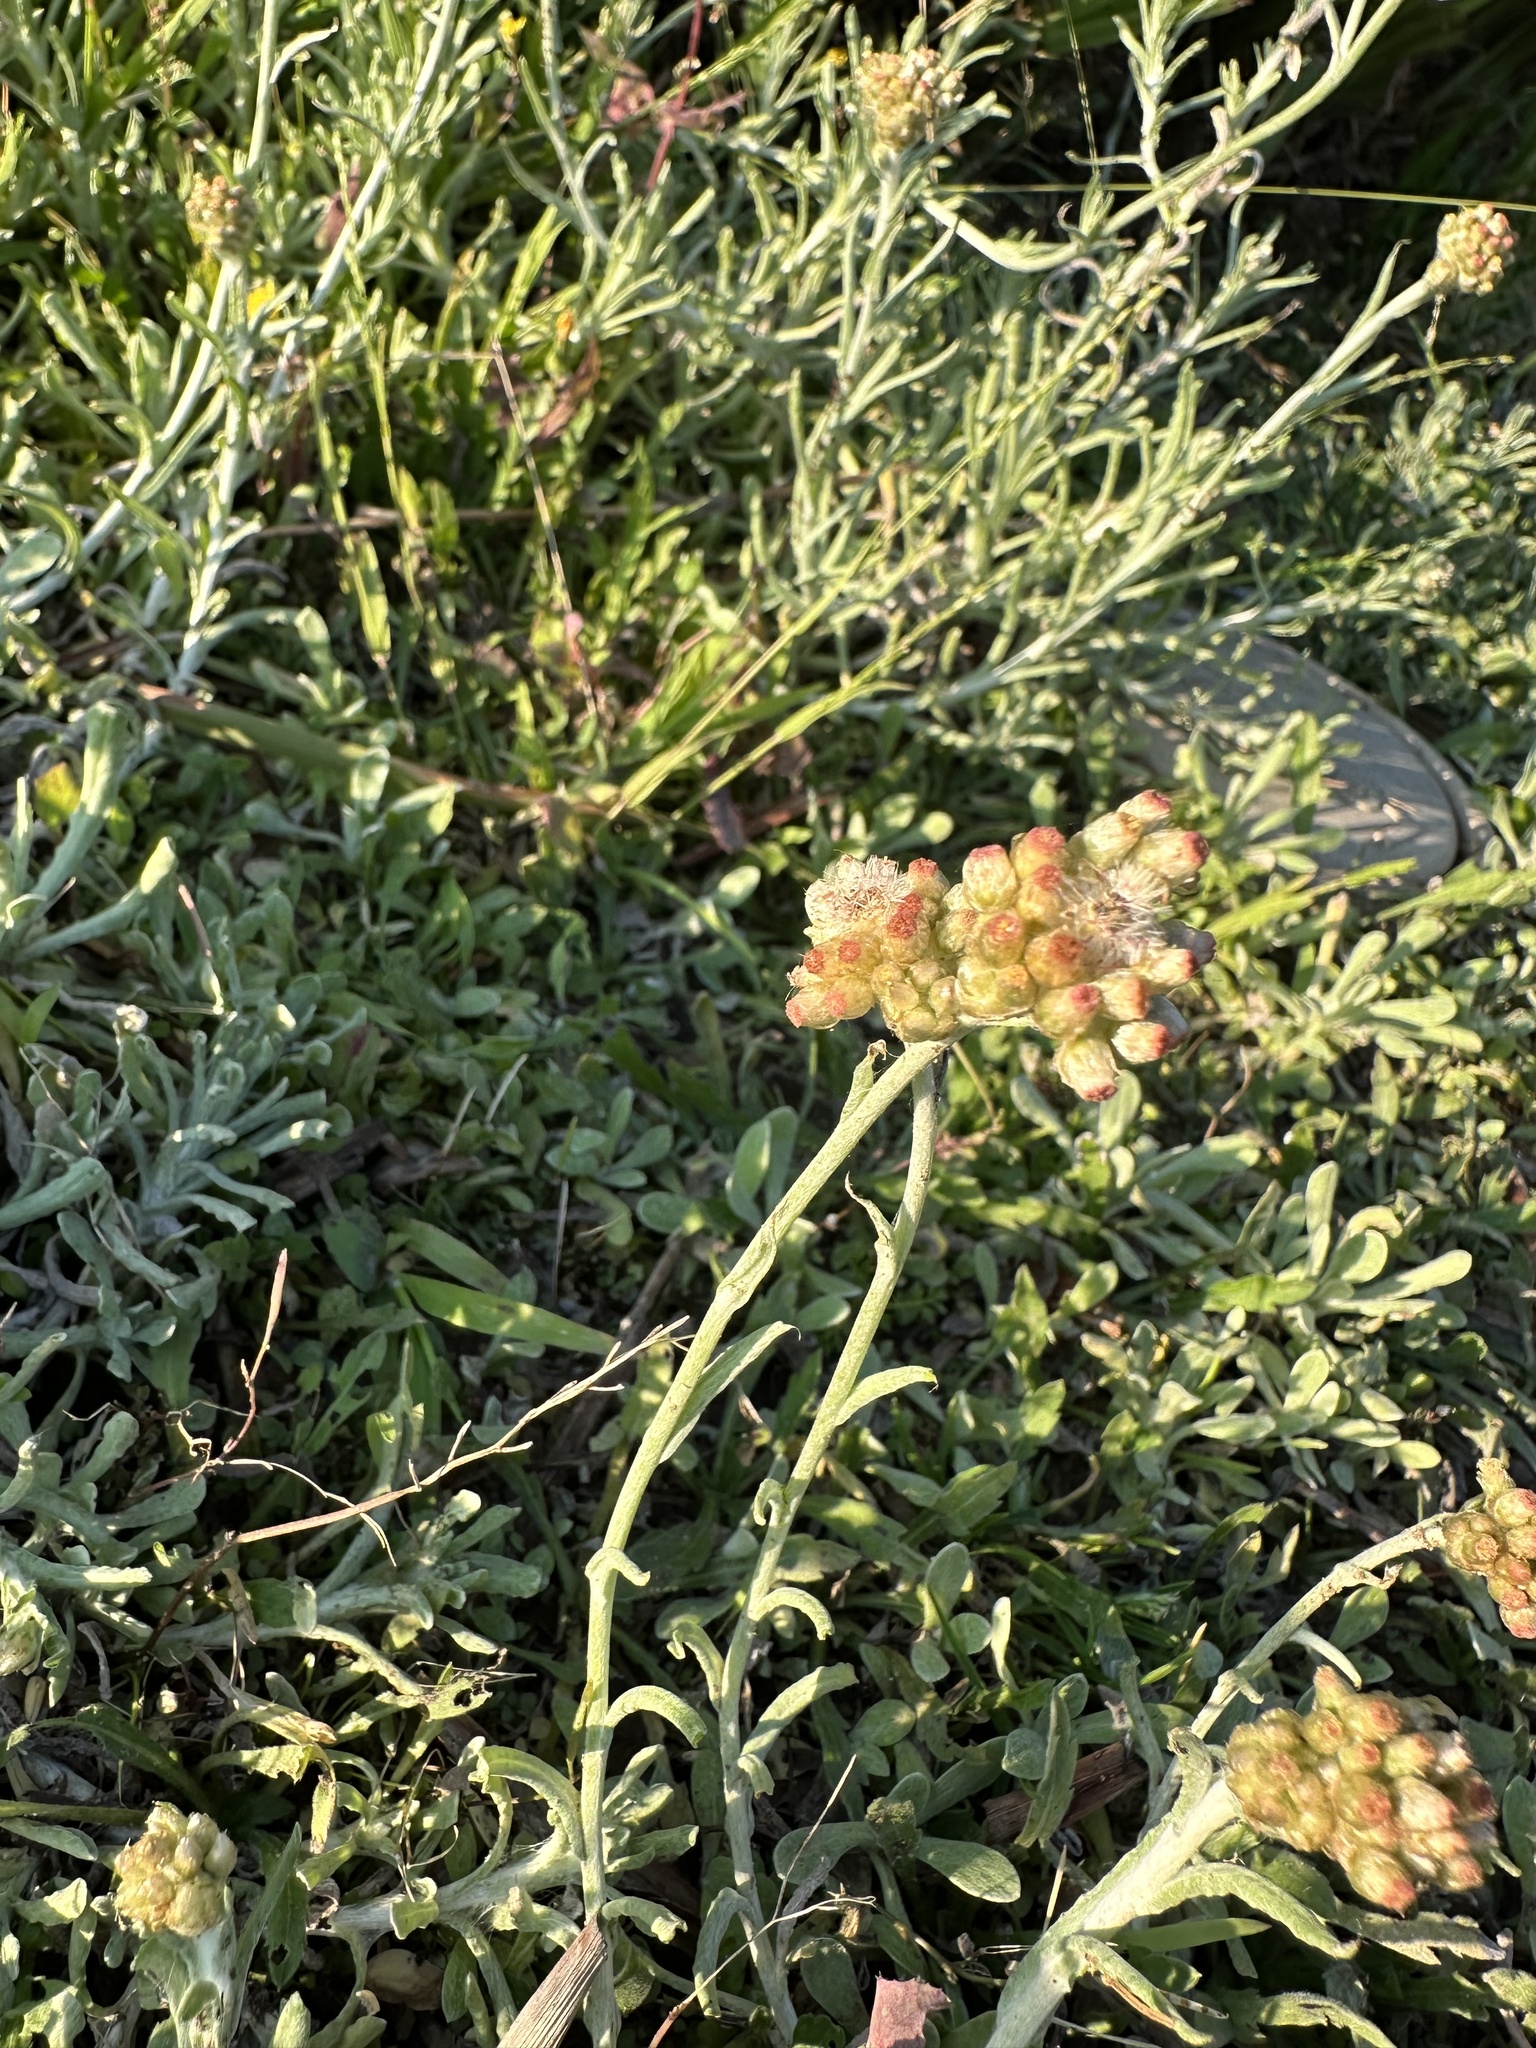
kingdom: Plantae
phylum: Tracheophyta
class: Magnoliopsida
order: Asterales
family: Asteraceae
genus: Helichrysum
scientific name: Helichrysum luteoalbum
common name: Daisy
